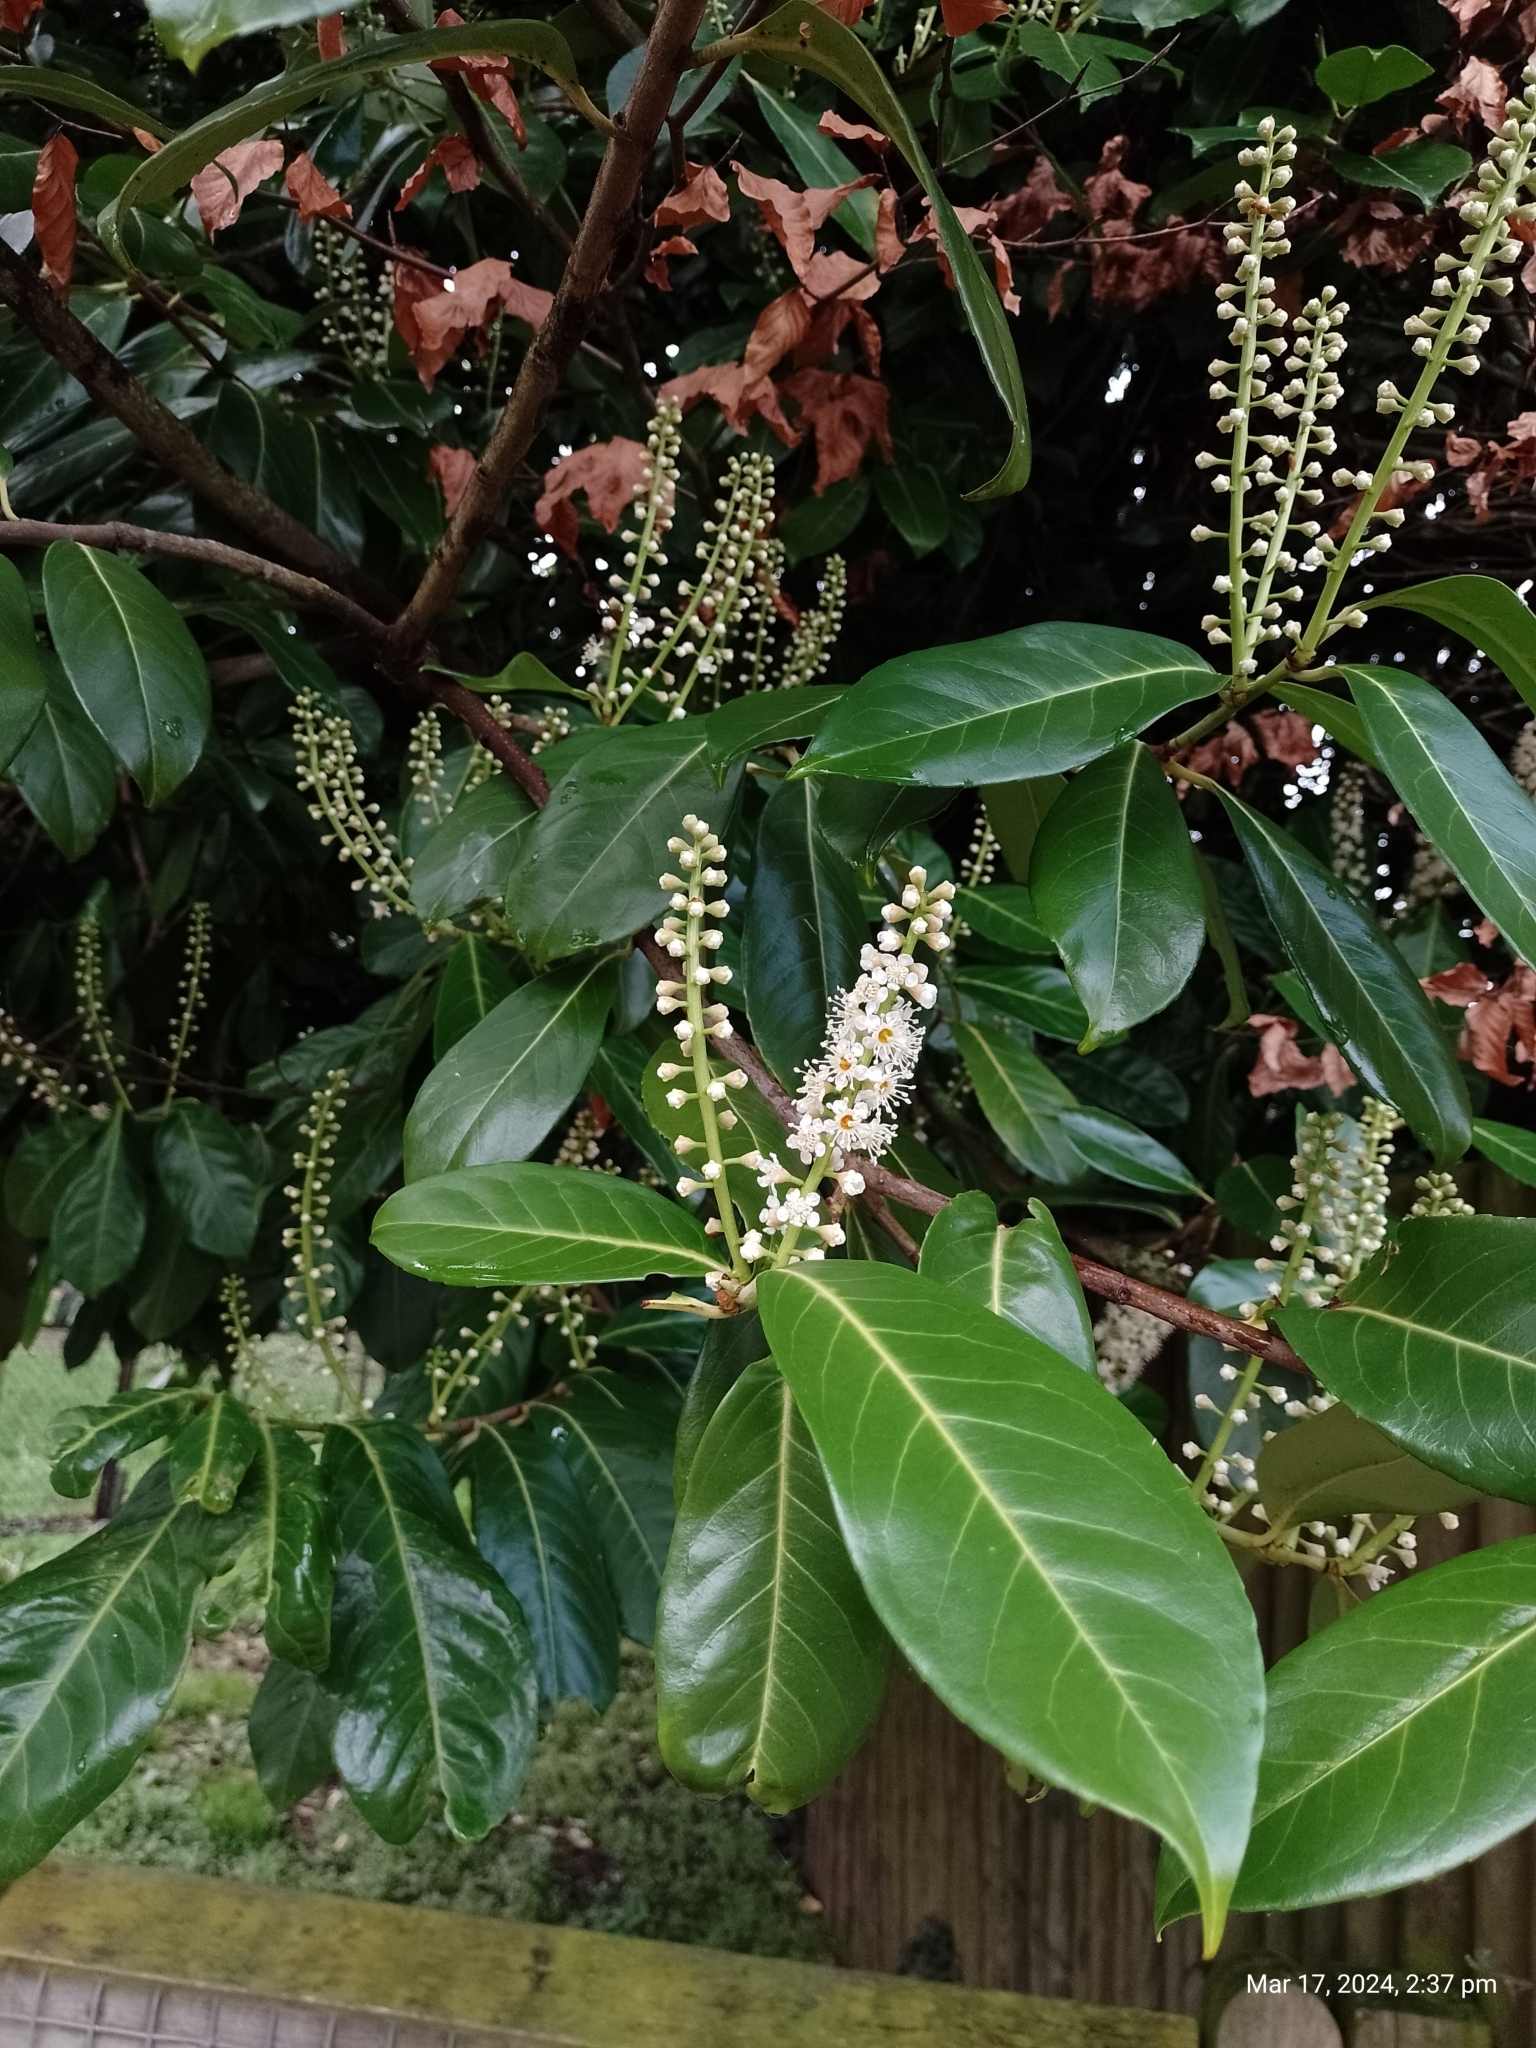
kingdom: Plantae
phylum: Tracheophyta
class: Magnoliopsida
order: Rosales
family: Rosaceae
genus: Prunus
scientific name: Prunus laurocerasus
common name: Cherry laurel
